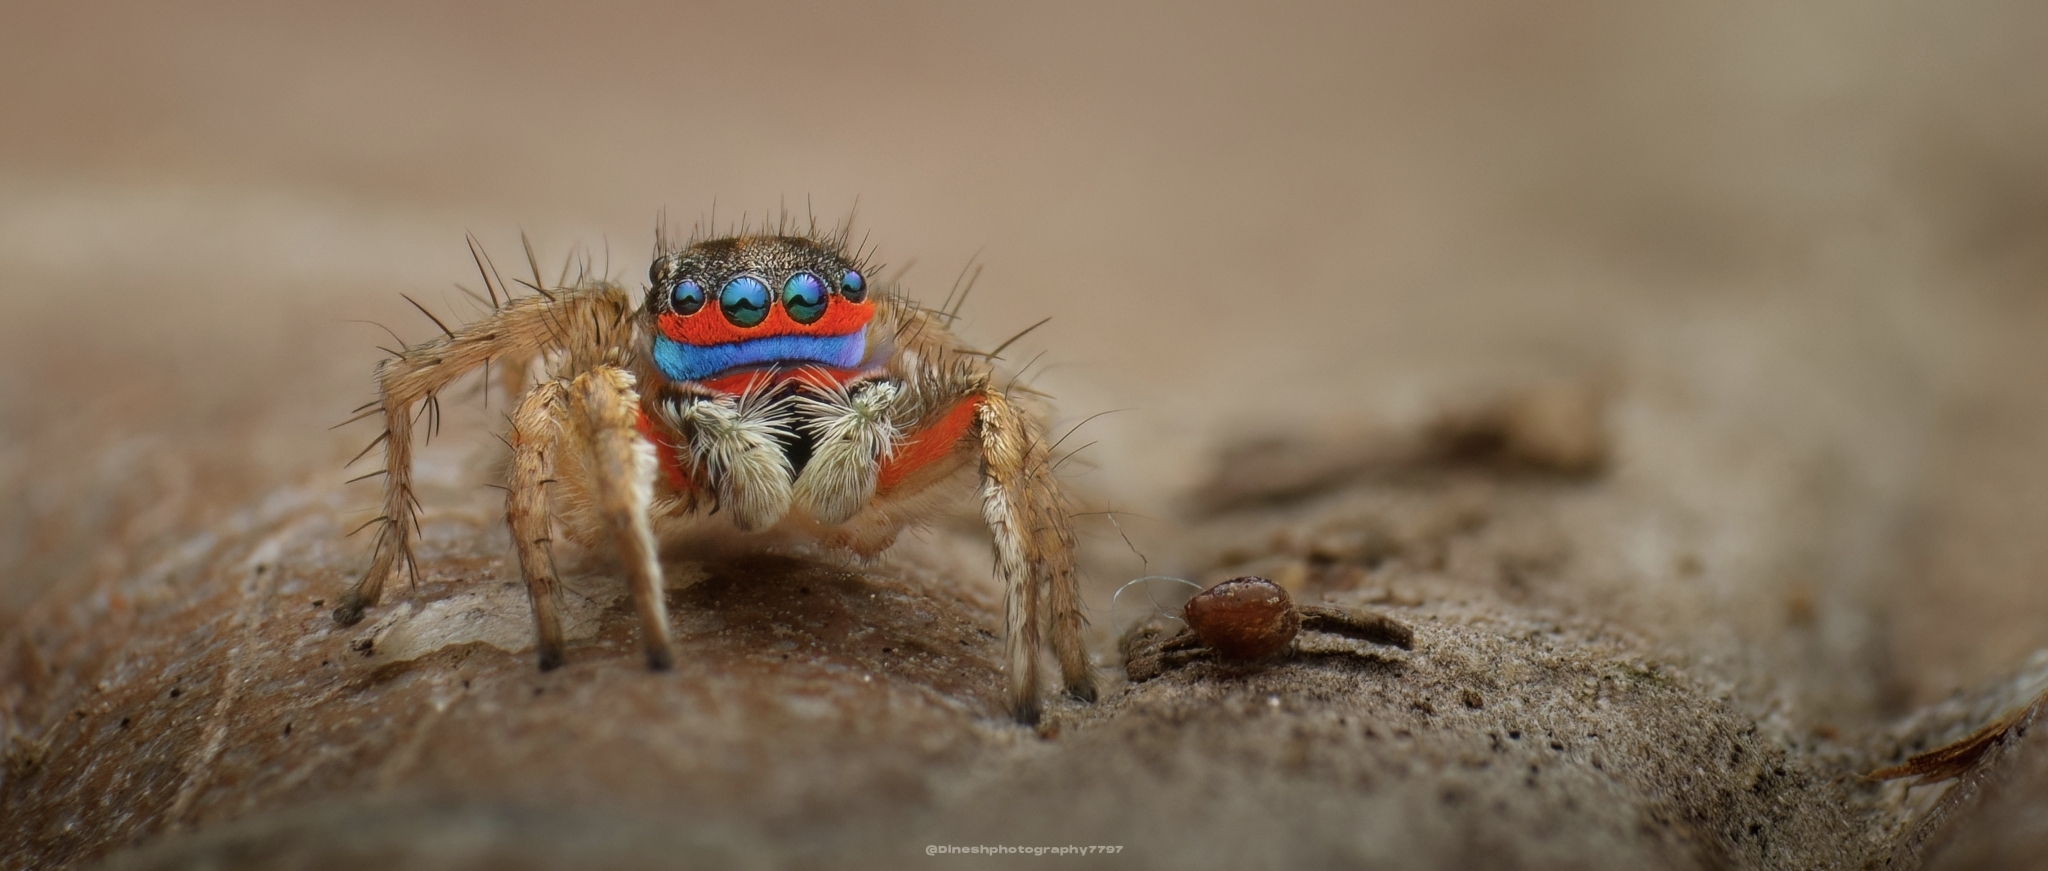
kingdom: Animalia
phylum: Arthropoda
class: Arachnida
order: Araneae
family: Salticidae
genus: Stenaelurillus
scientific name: Stenaelurillus lesserti
